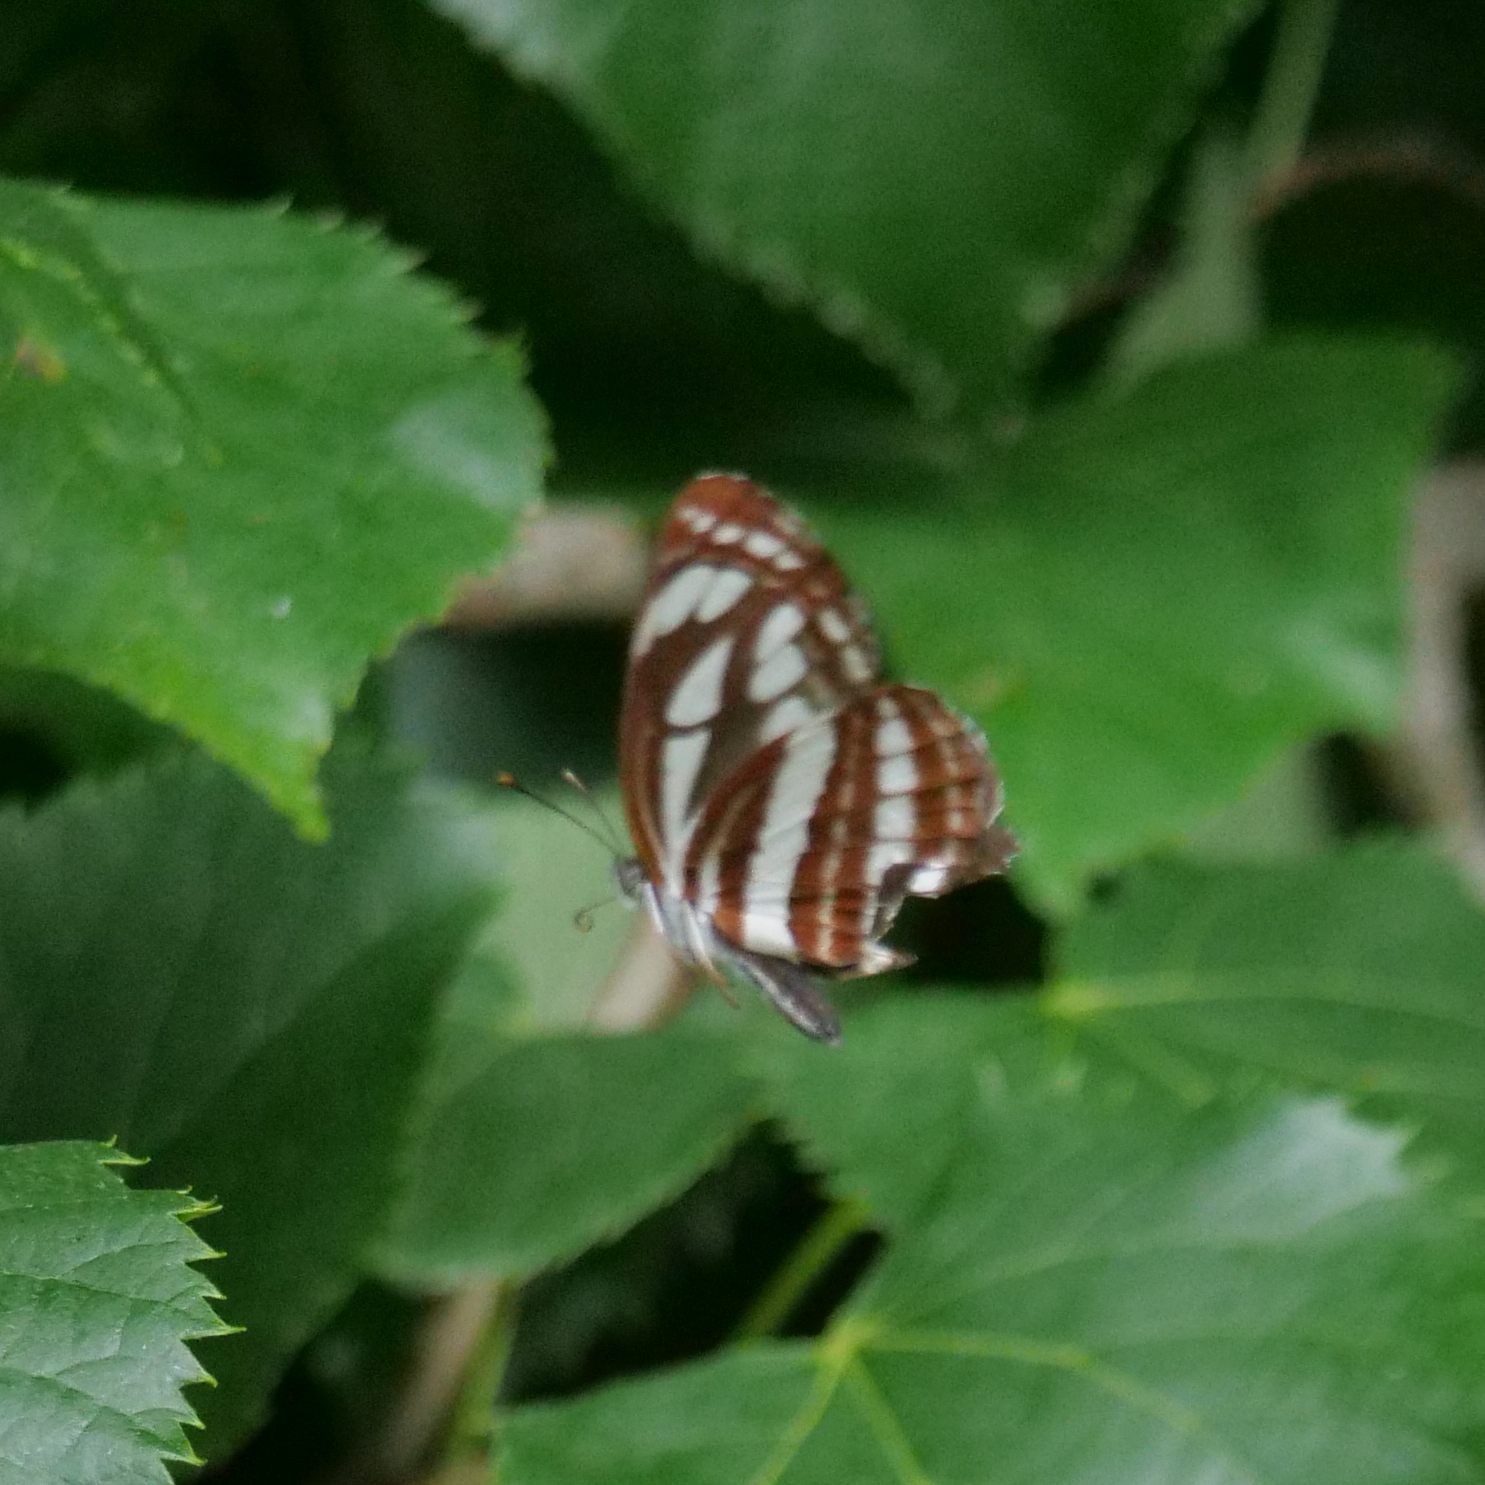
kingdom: Animalia
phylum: Arthropoda
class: Insecta
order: Lepidoptera
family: Nymphalidae
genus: Neptis
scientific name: Neptis sappho
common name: Common glider
